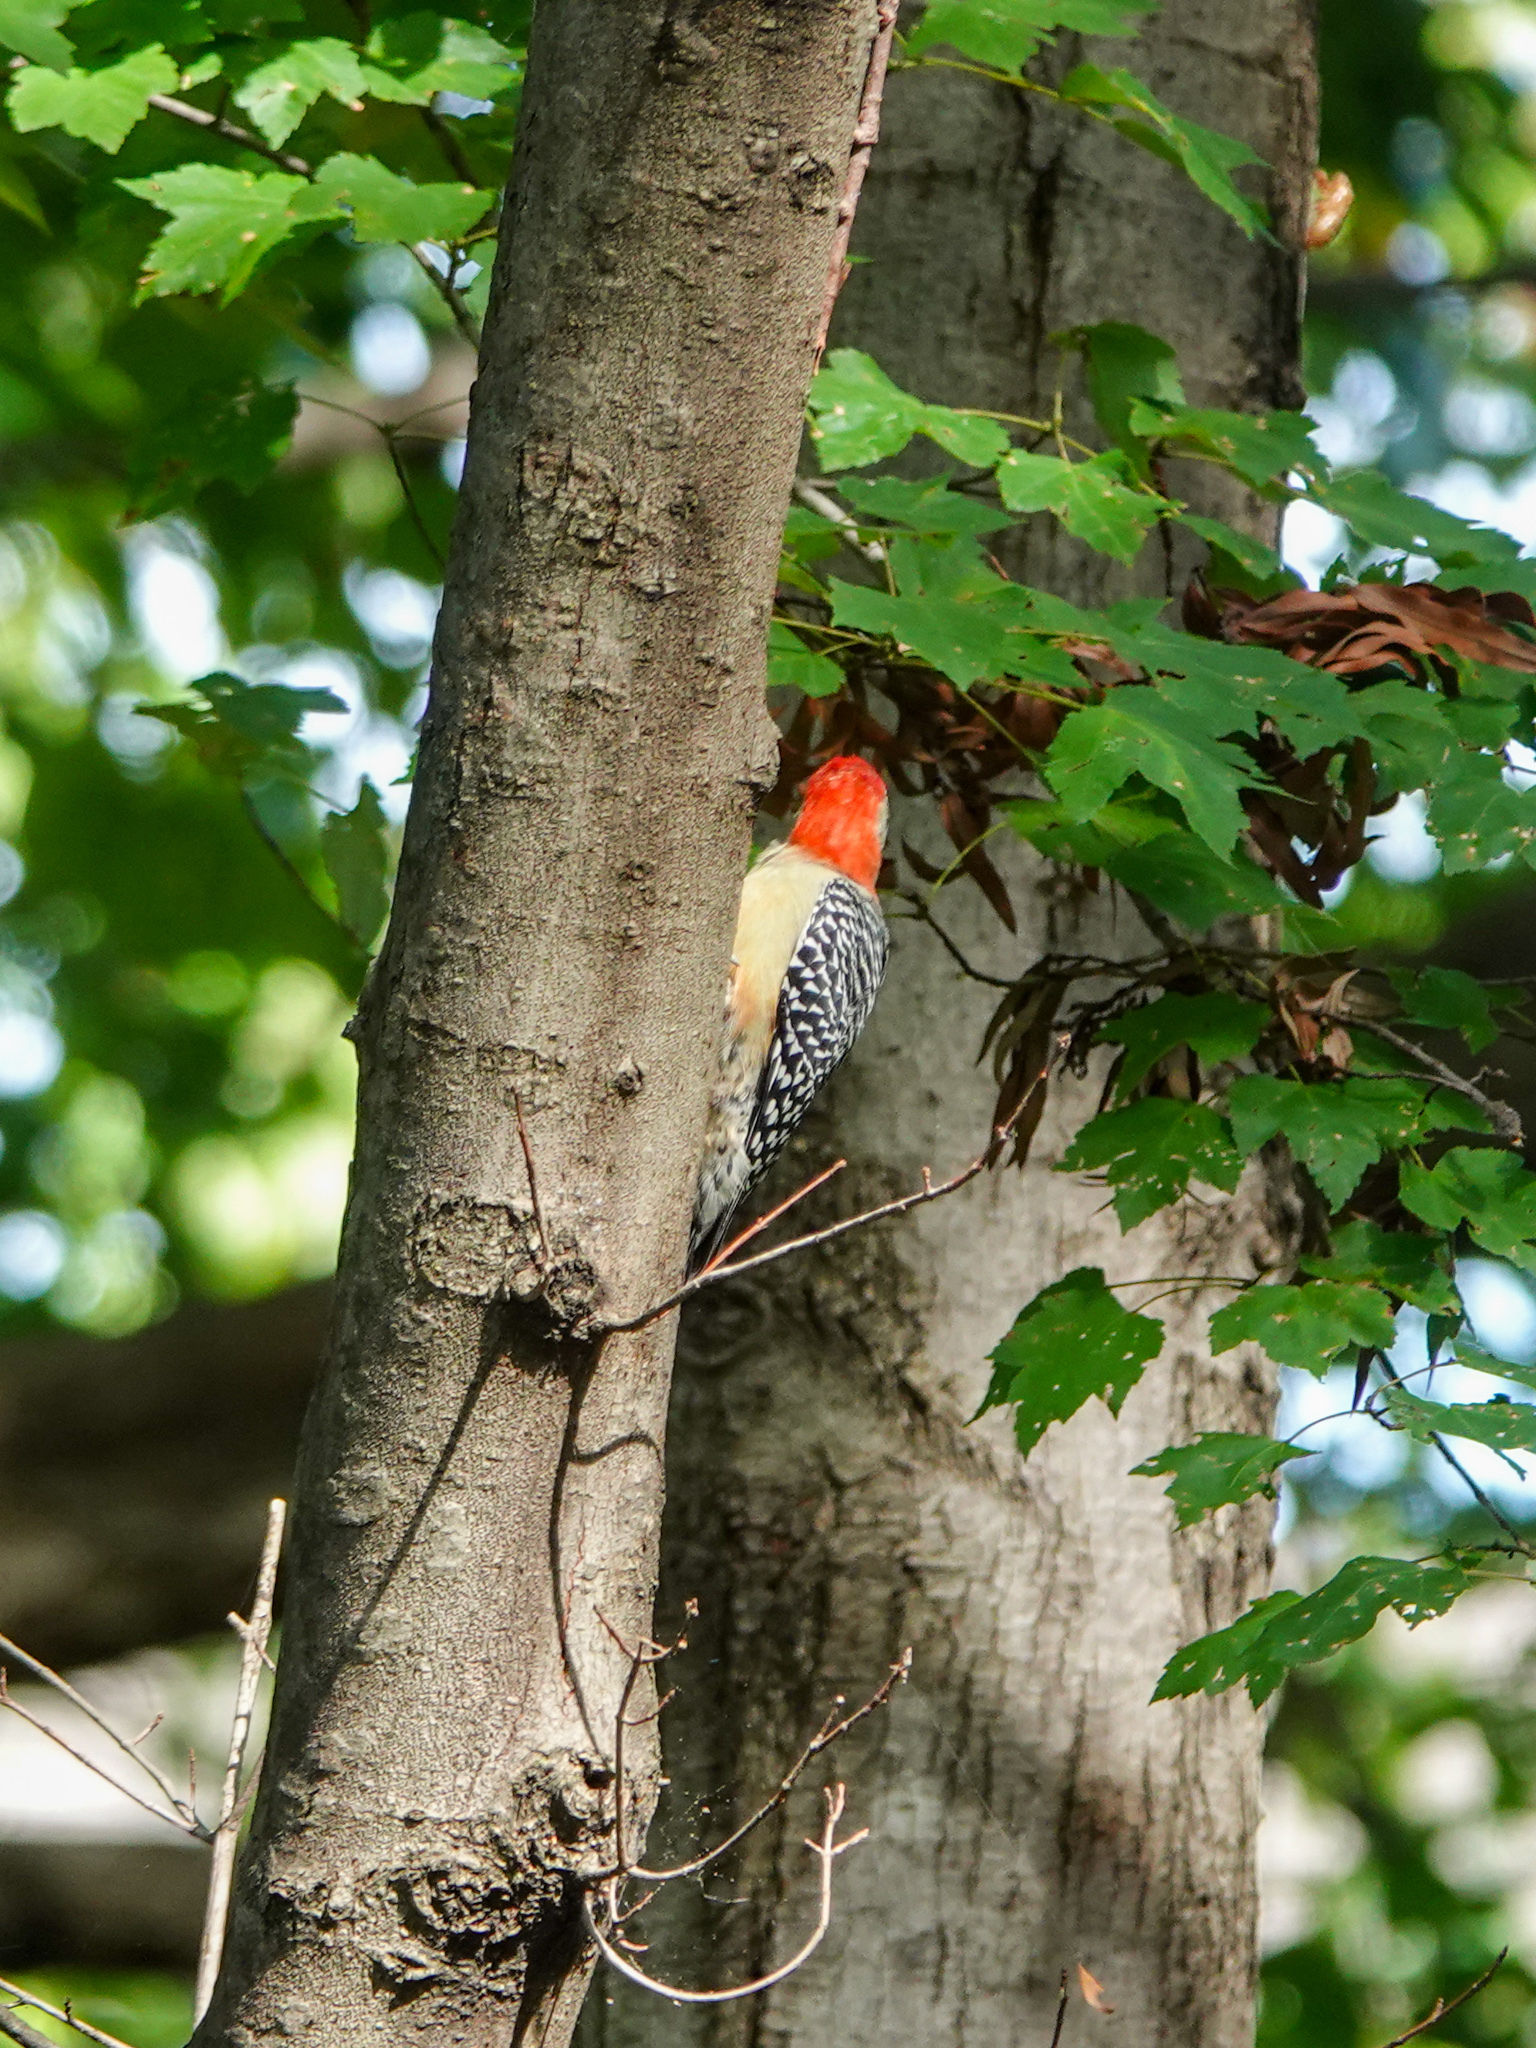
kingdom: Animalia
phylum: Chordata
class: Aves
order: Piciformes
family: Picidae
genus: Melanerpes
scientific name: Melanerpes carolinus
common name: Red-bellied woodpecker
